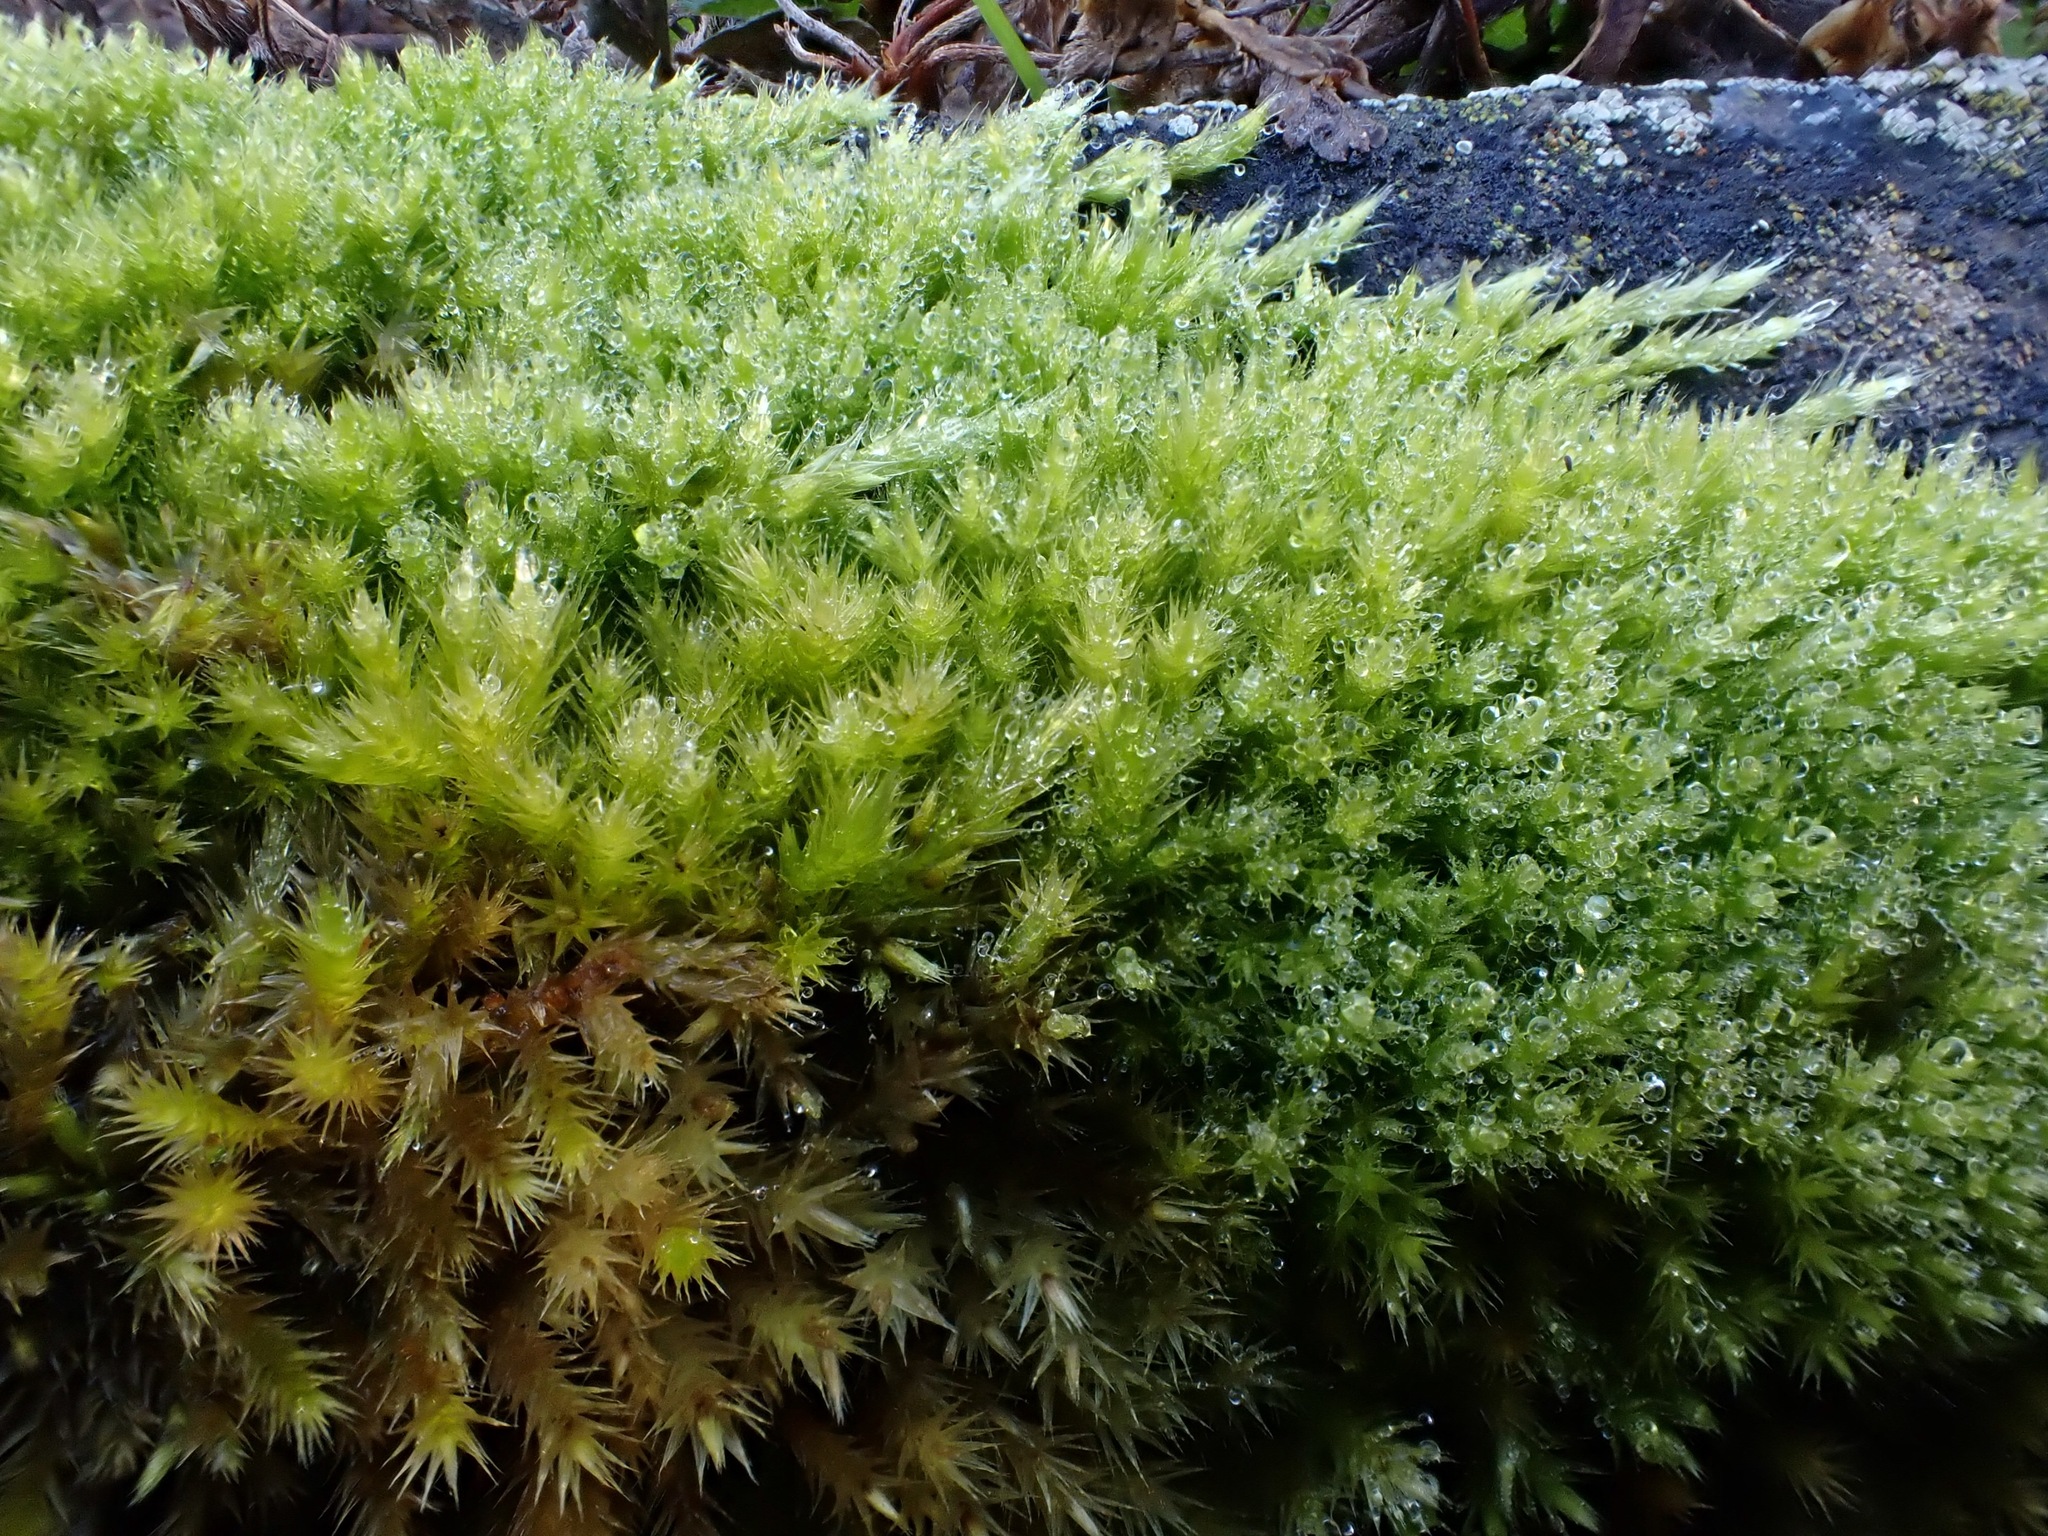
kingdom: Plantae
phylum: Bryophyta
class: Bryopsida
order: Hypnales
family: Brachytheciaceae
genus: Homalothecium
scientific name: Homalothecium sericeum
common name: Silky wall feather-moss
